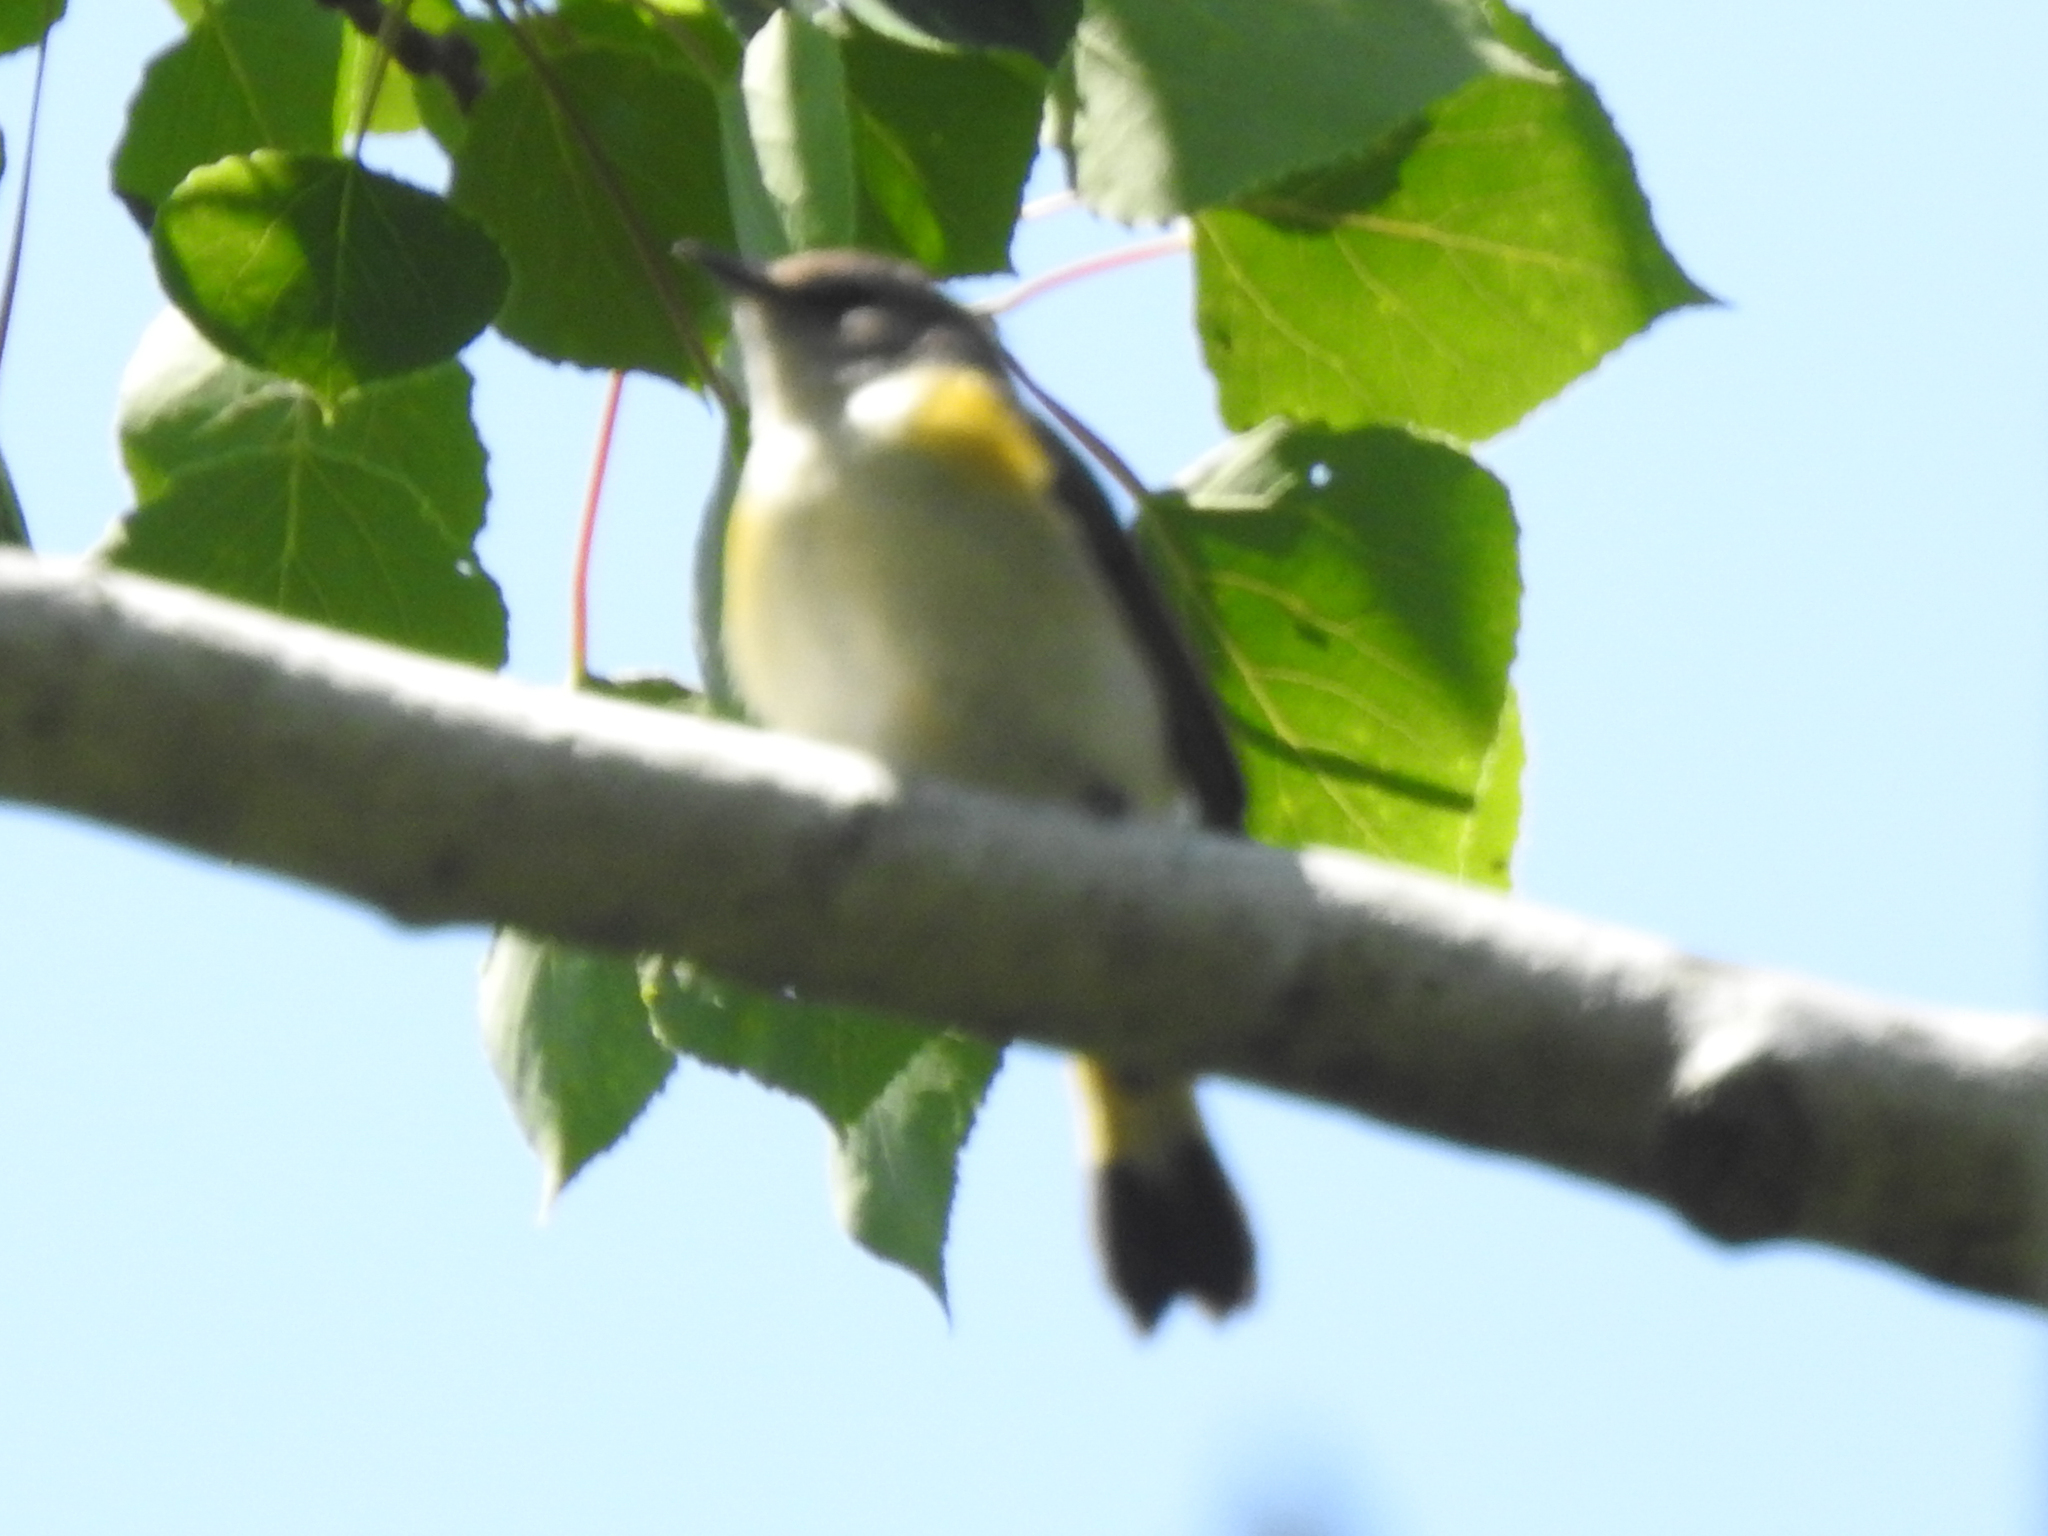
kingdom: Animalia
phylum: Chordata
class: Aves
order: Passeriformes
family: Parulidae
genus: Setophaga
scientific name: Setophaga ruticilla
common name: American redstart
